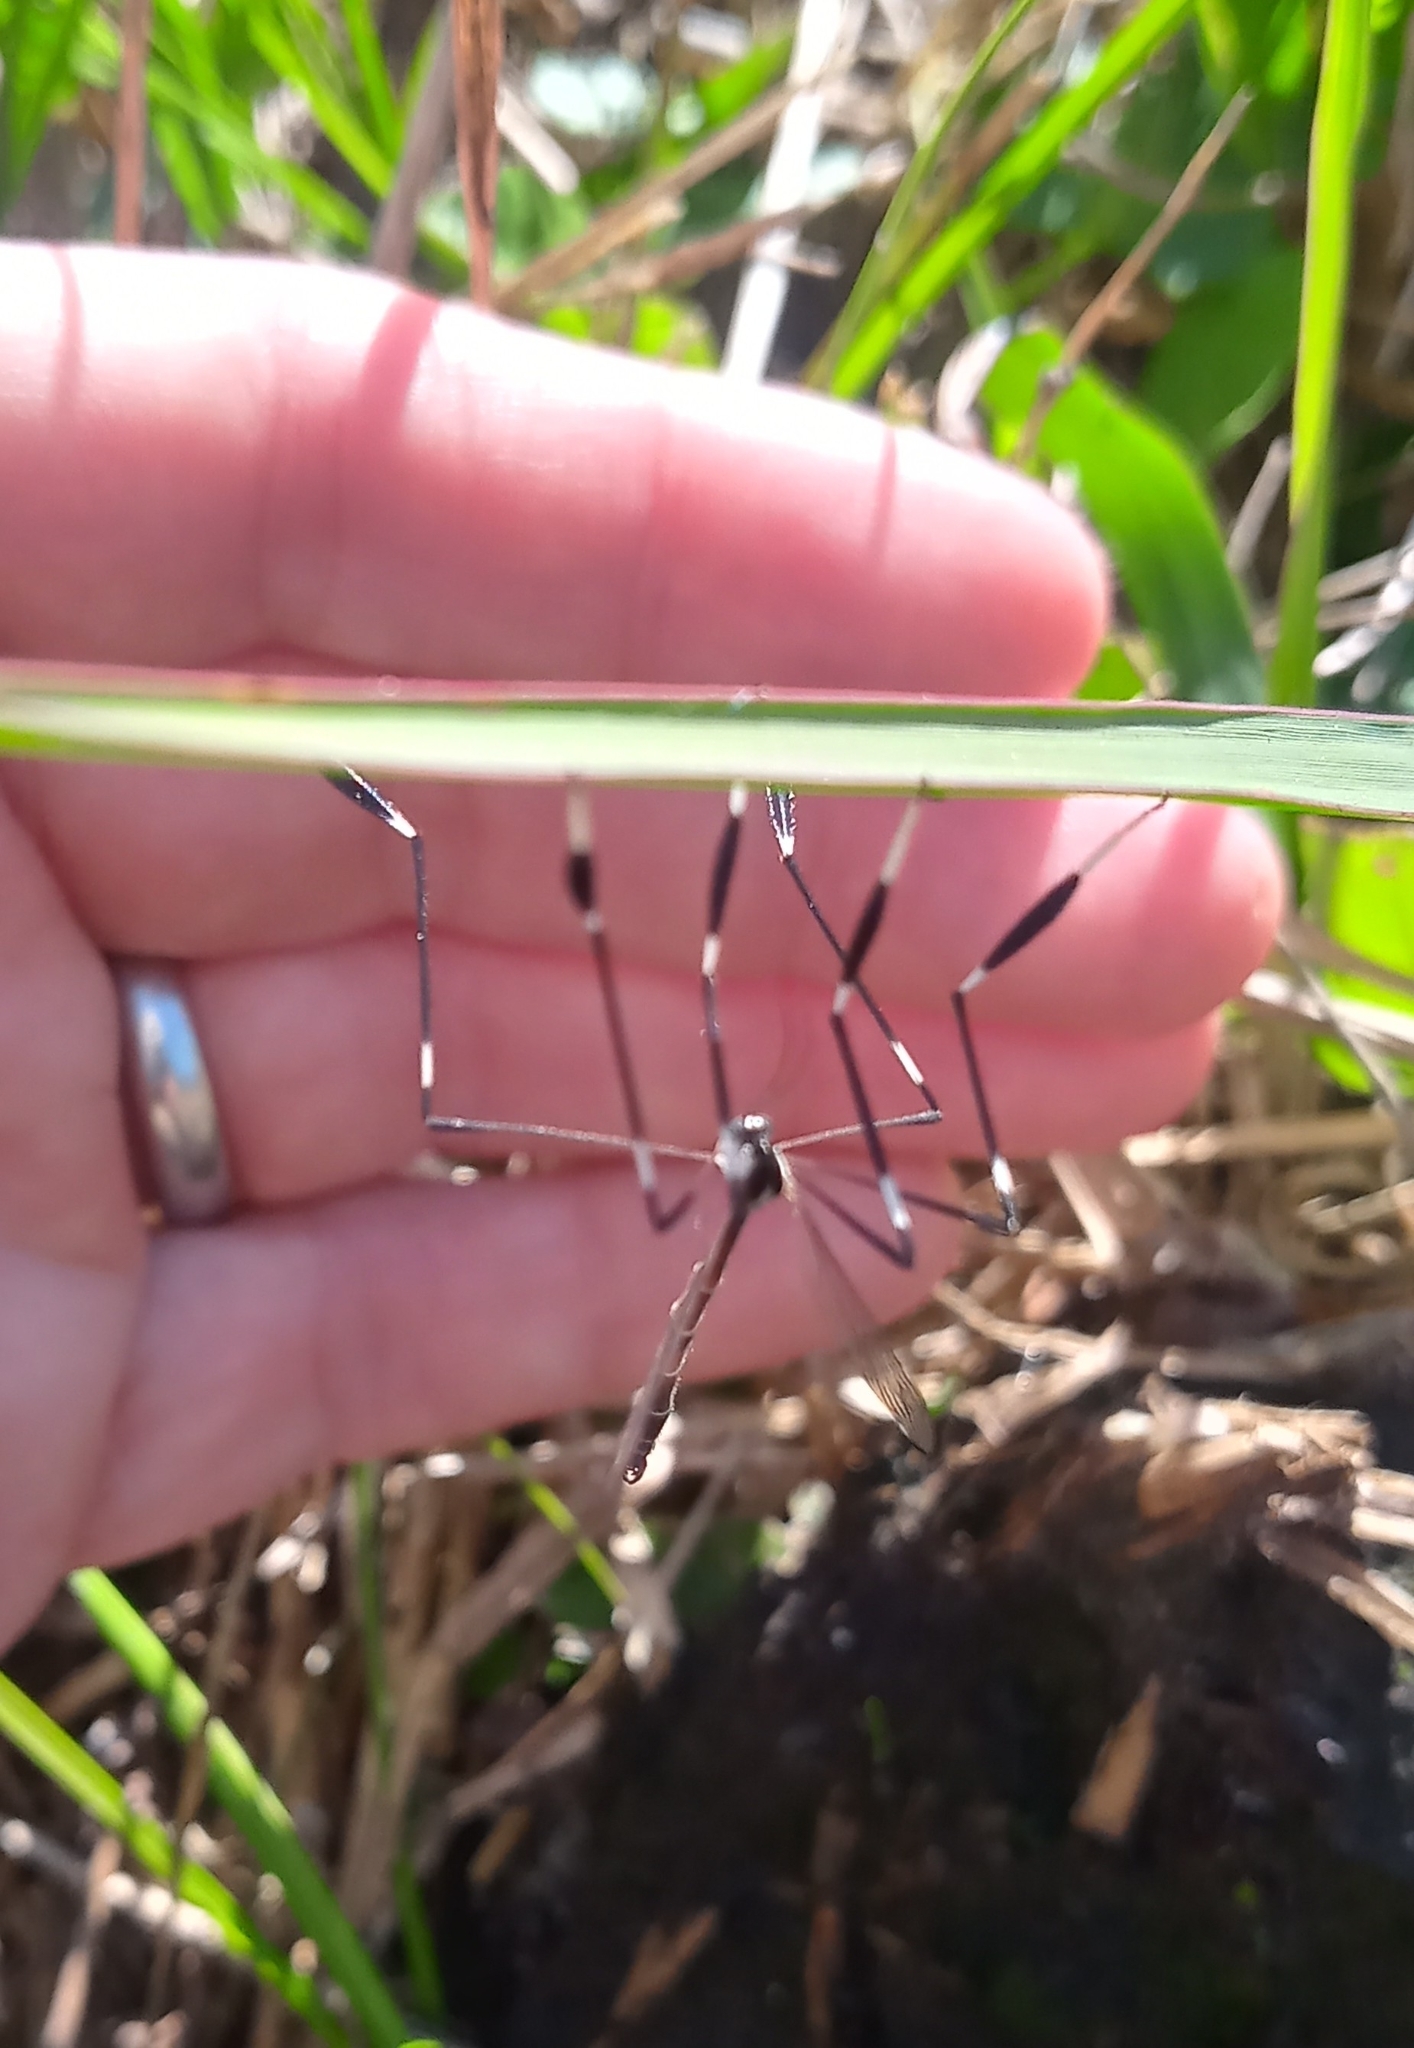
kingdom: Animalia
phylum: Arthropoda
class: Insecta
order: Diptera
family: Ptychopteridae
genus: Bittacomorpha
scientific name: Bittacomorpha clavipes
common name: Eastern phantom crane fly
